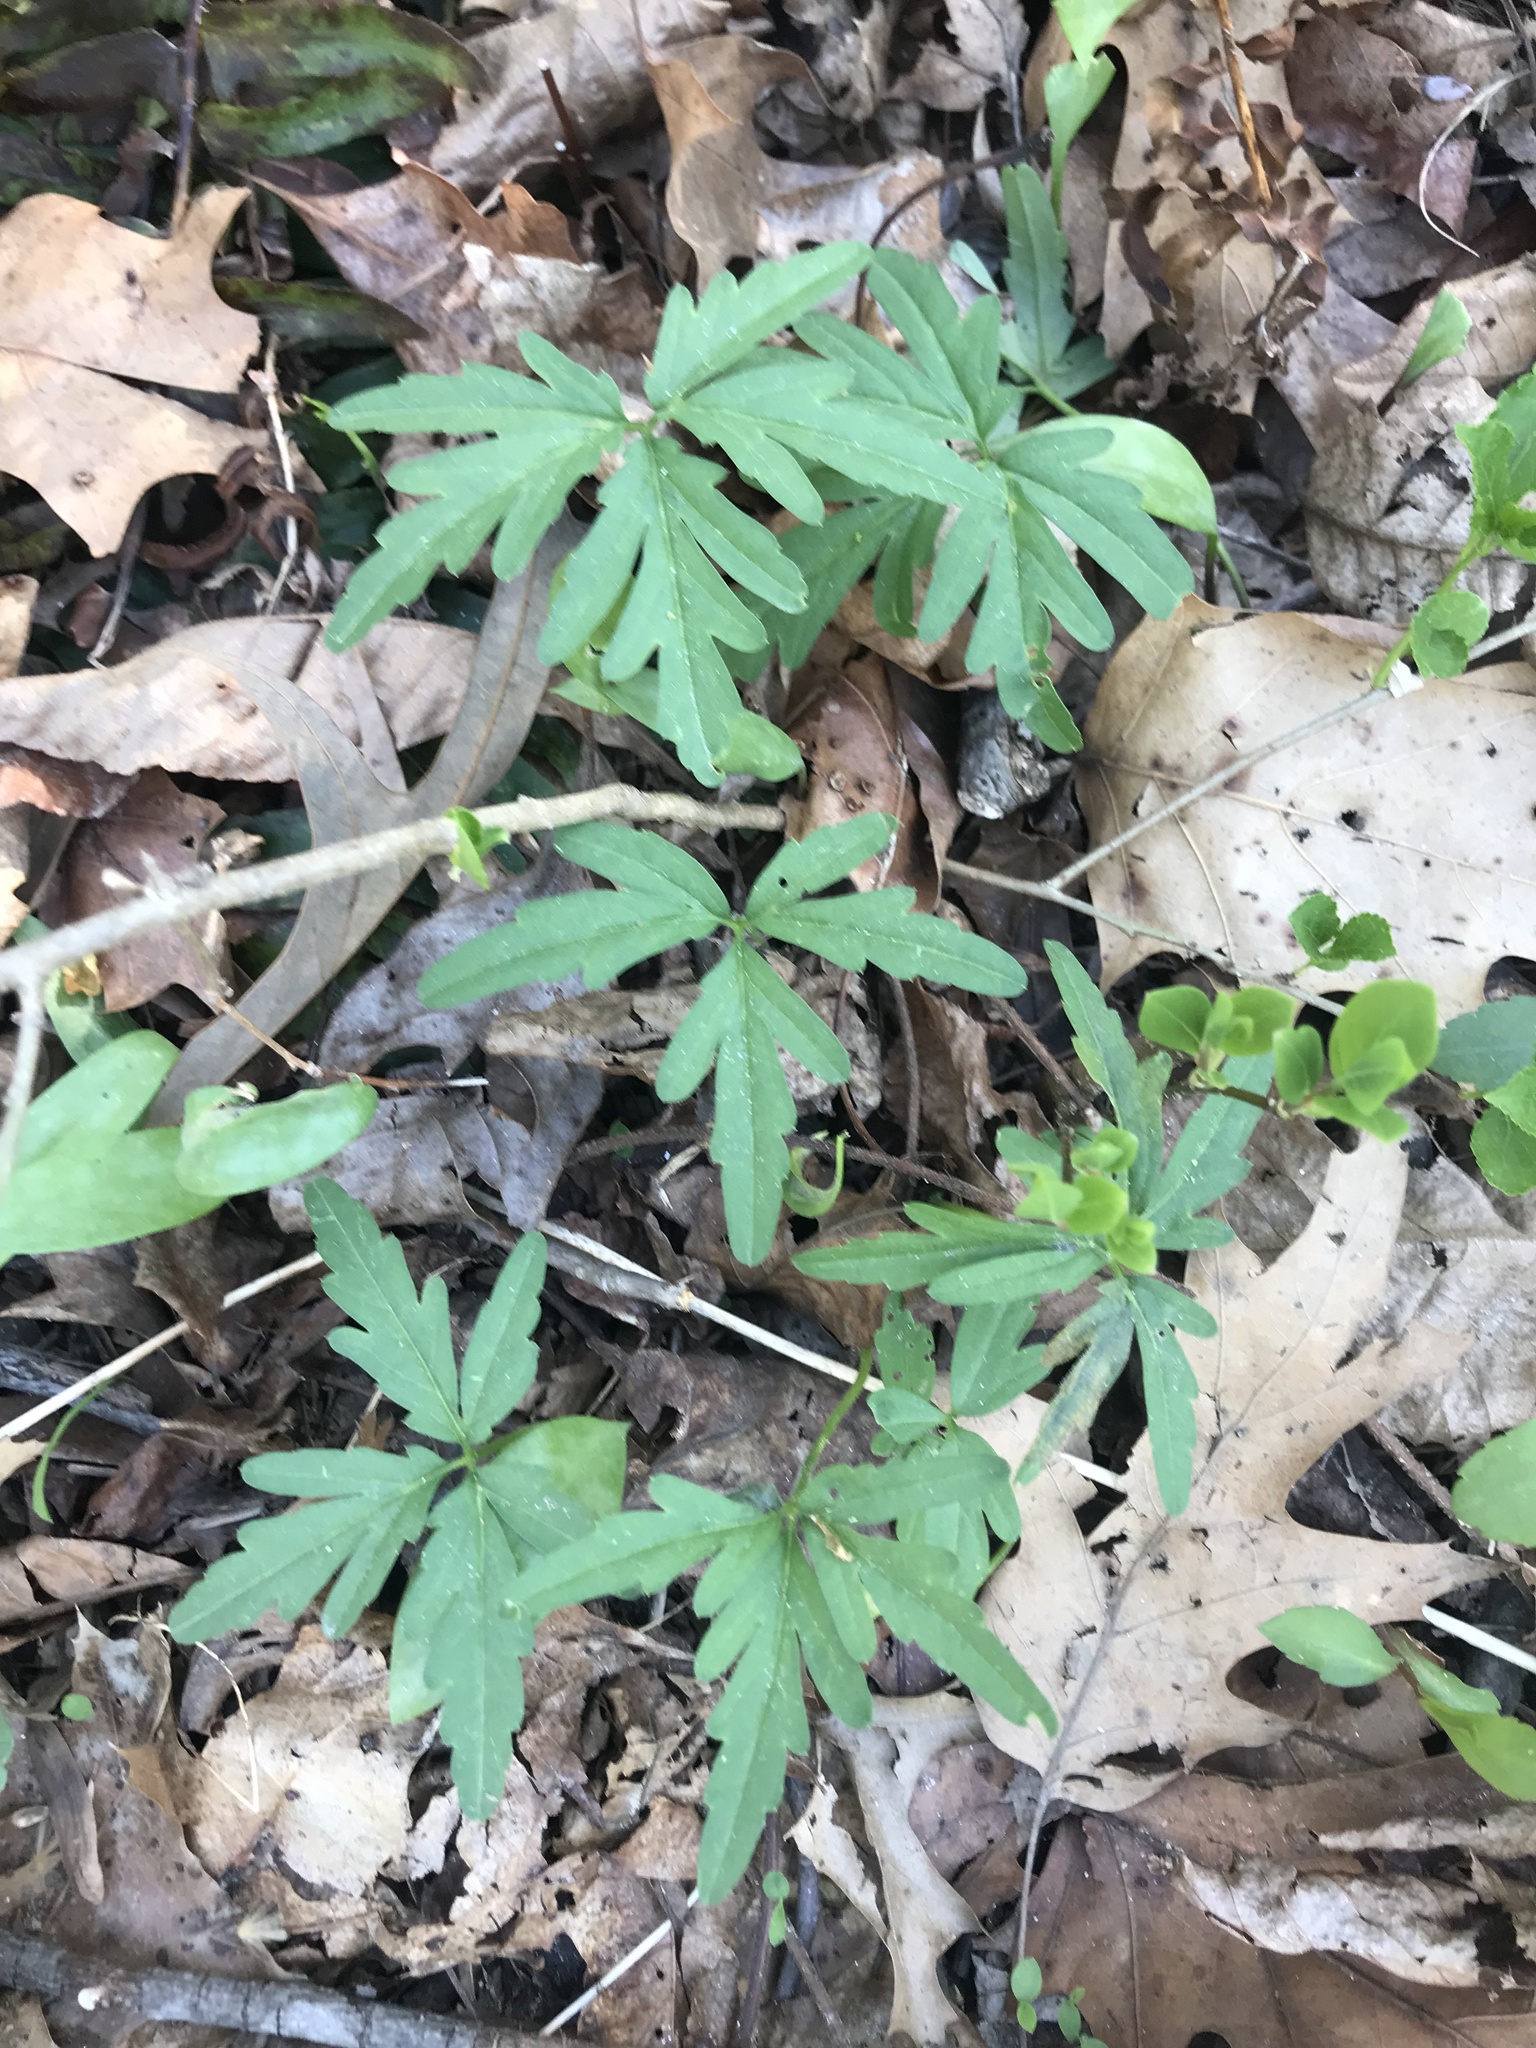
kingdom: Plantae
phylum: Tracheophyta
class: Magnoliopsida
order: Brassicales
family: Brassicaceae
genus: Cardamine
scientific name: Cardamine concatenata
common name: Cut-leaf toothcup
